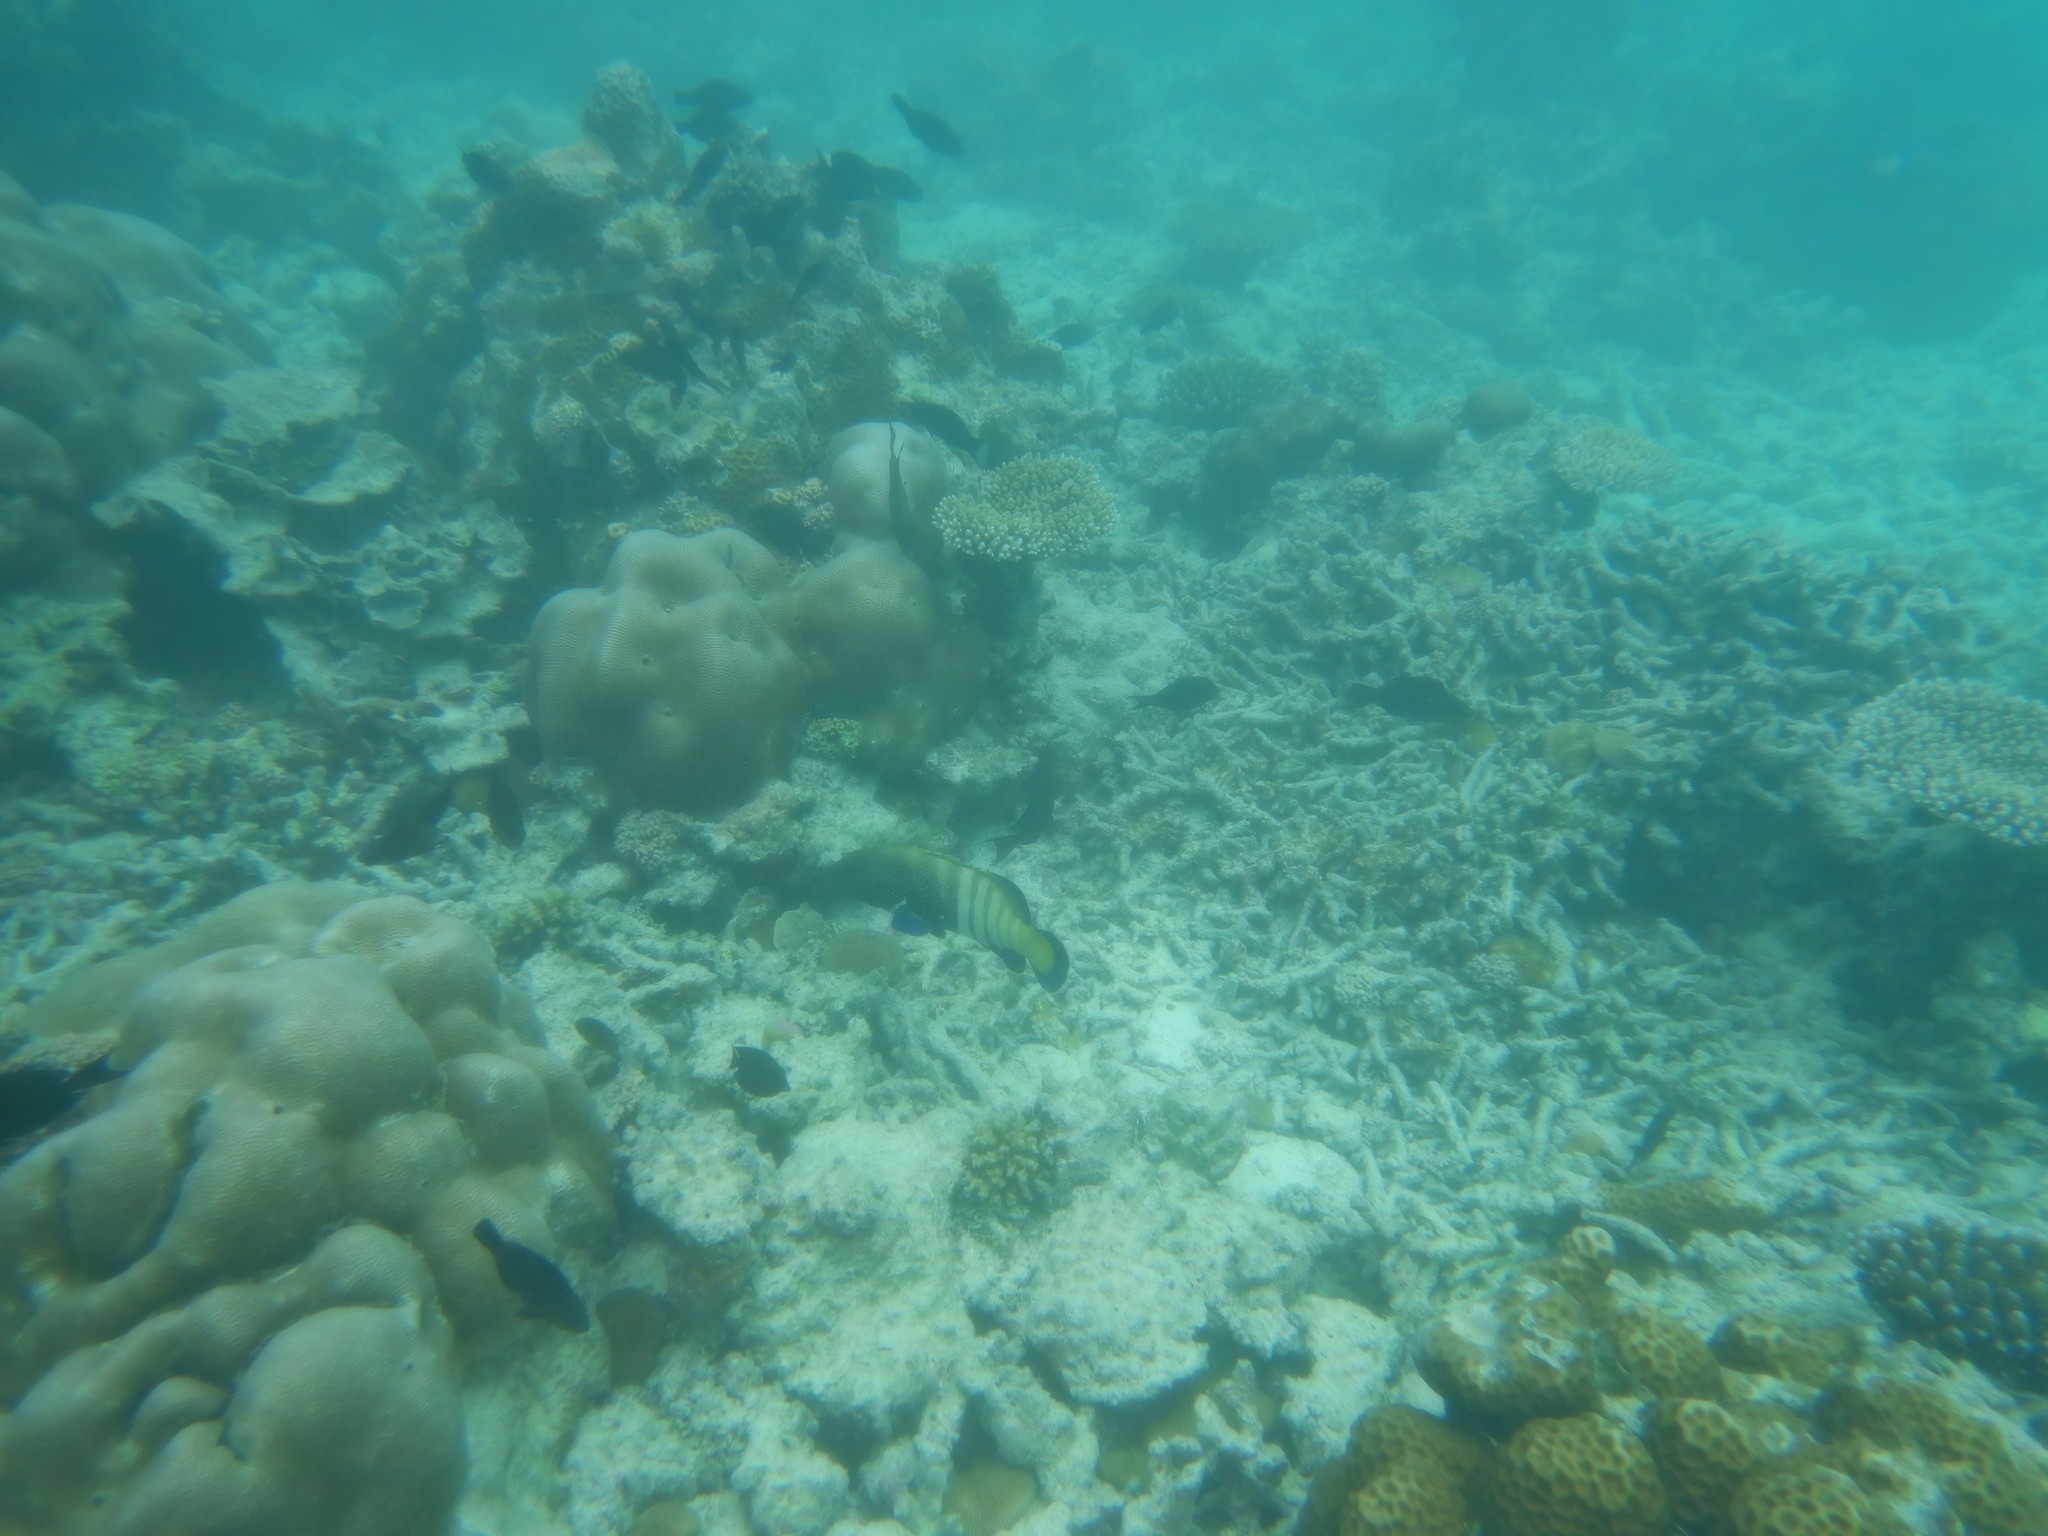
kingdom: Animalia
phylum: Chordata
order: Perciformes
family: Serranidae
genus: Cephalopholis
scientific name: Cephalopholis argus
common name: Peacock grouper
